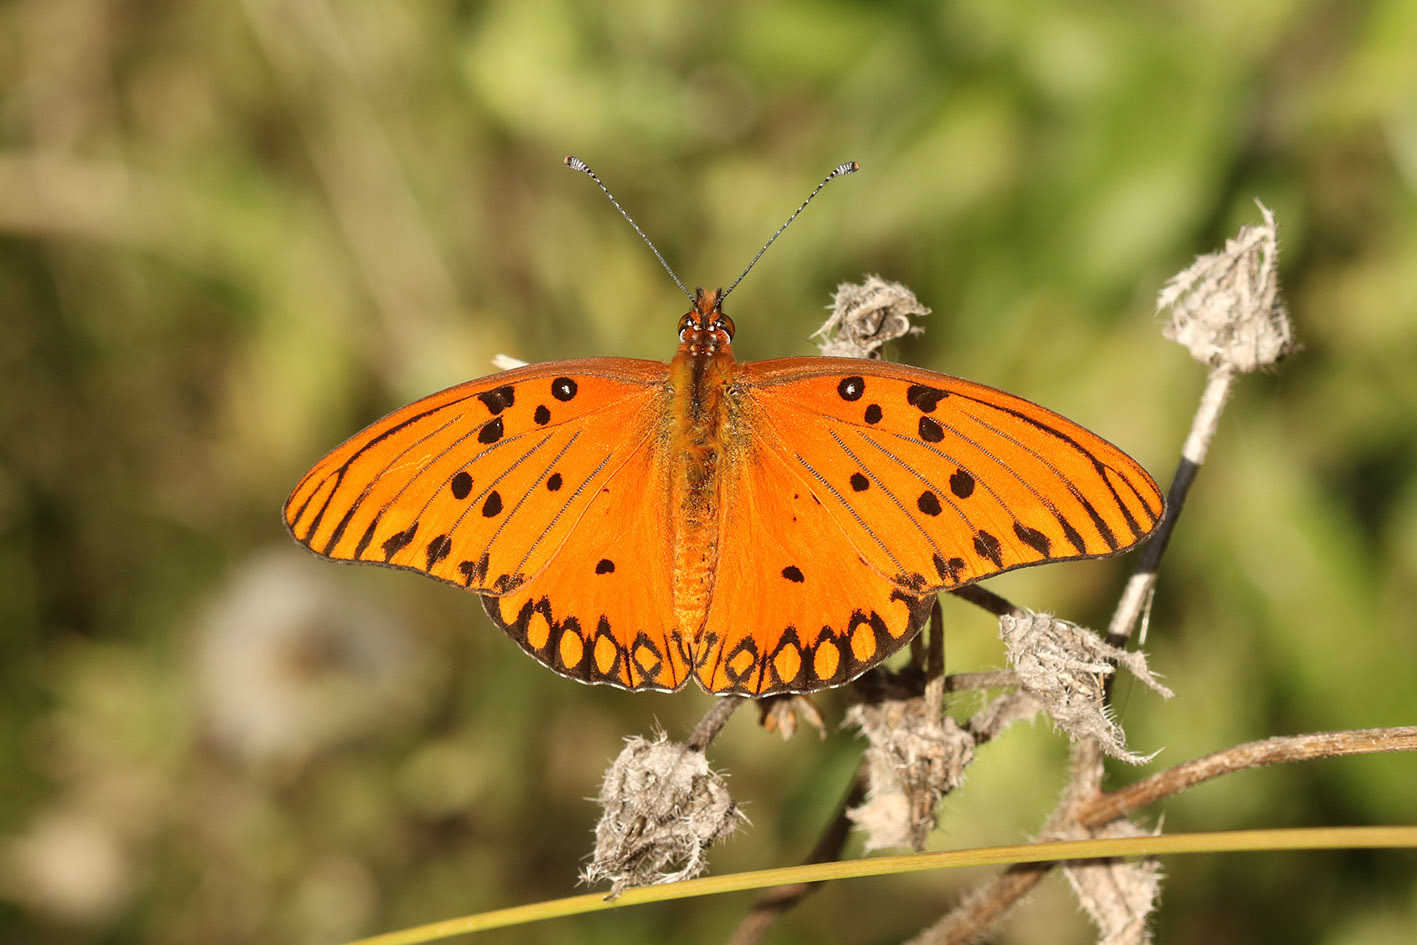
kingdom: Animalia
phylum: Arthropoda
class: Insecta
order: Lepidoptera
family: Nymphalidae
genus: Dione
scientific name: Dione vanillae
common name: Gulf fritillary
